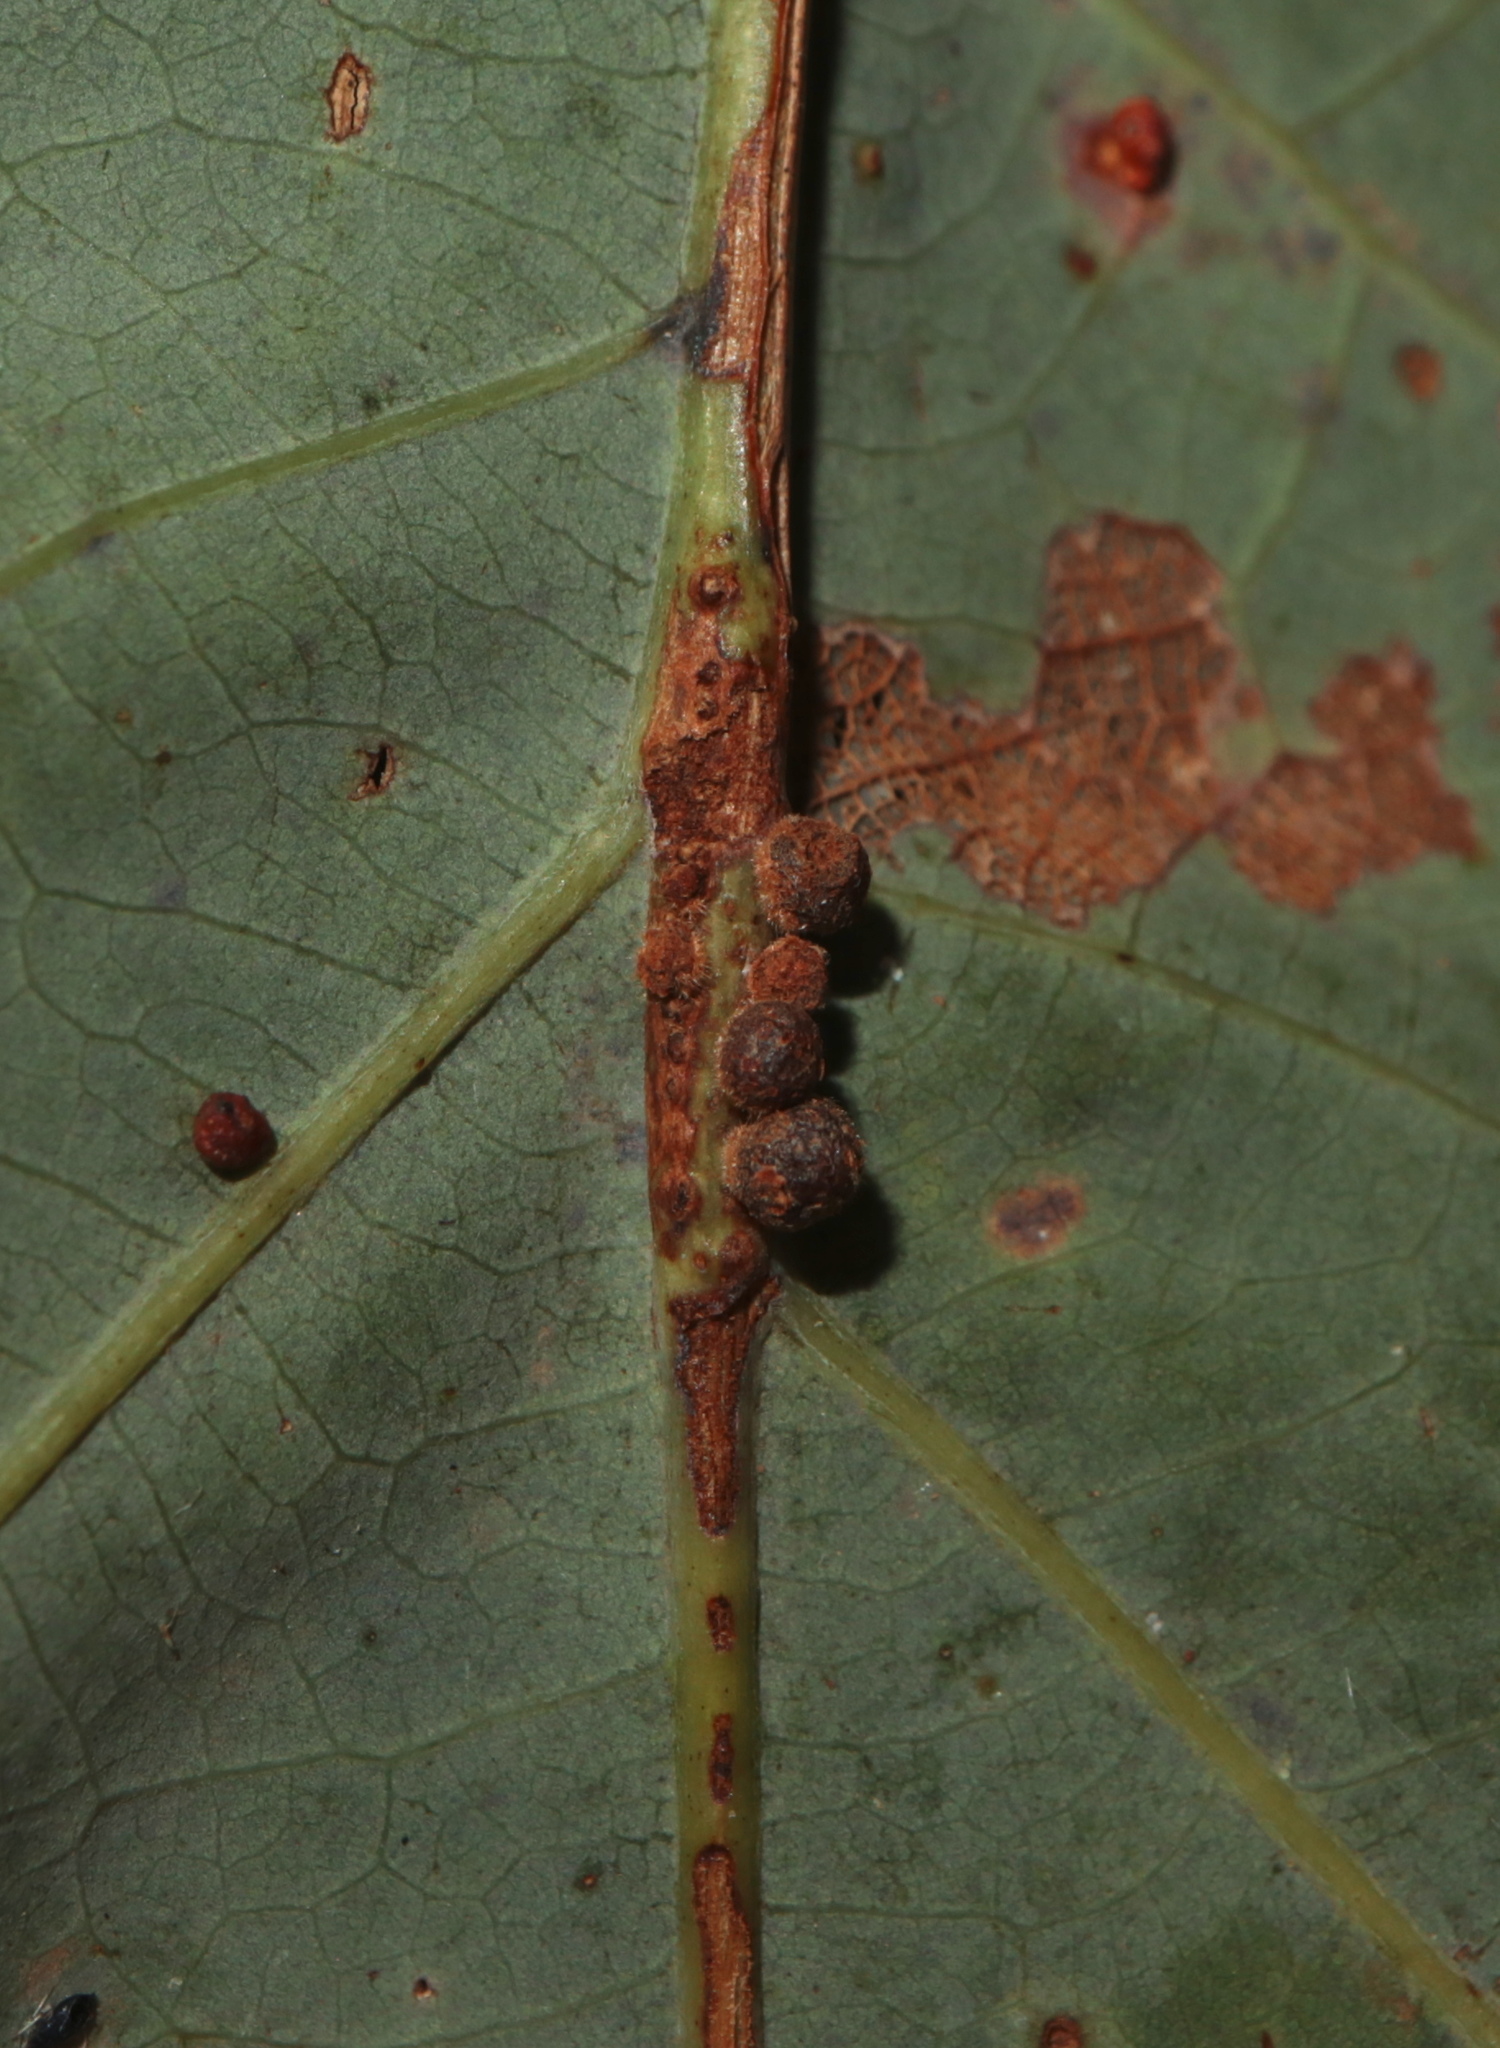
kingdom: Animalia
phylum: Arthropoda
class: Insecta
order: Hymenoptera
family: Cynipidae
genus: Andricus
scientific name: Andricus
